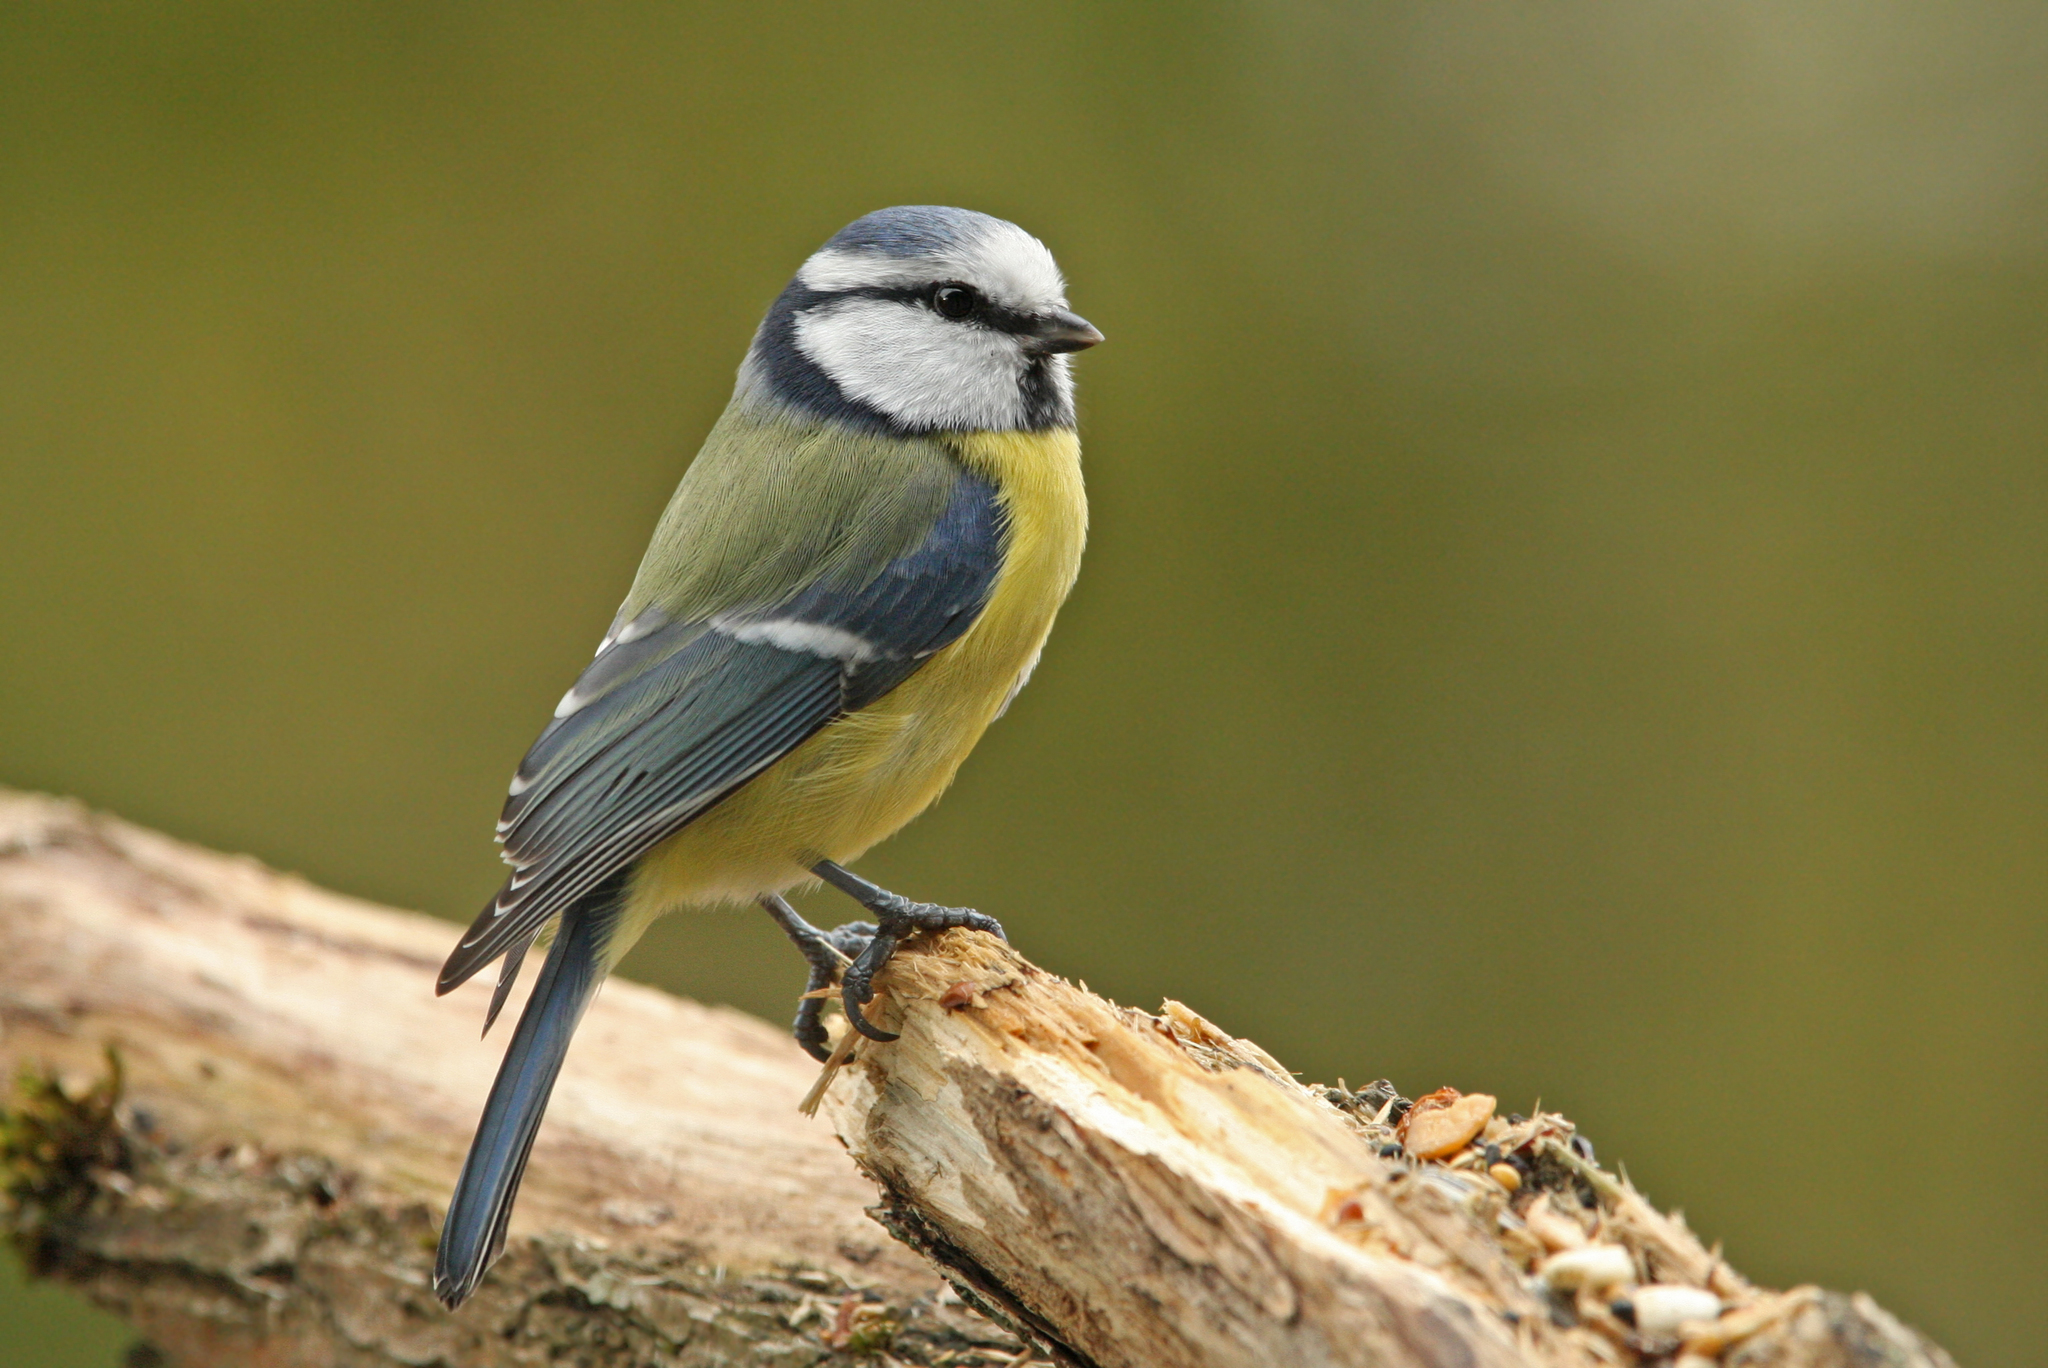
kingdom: Animalia
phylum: Chordata
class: Aves
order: Passeriformes
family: Paridae
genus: Cyanistes
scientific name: Cyanistes caeruleus
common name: Eurasian blue tit
